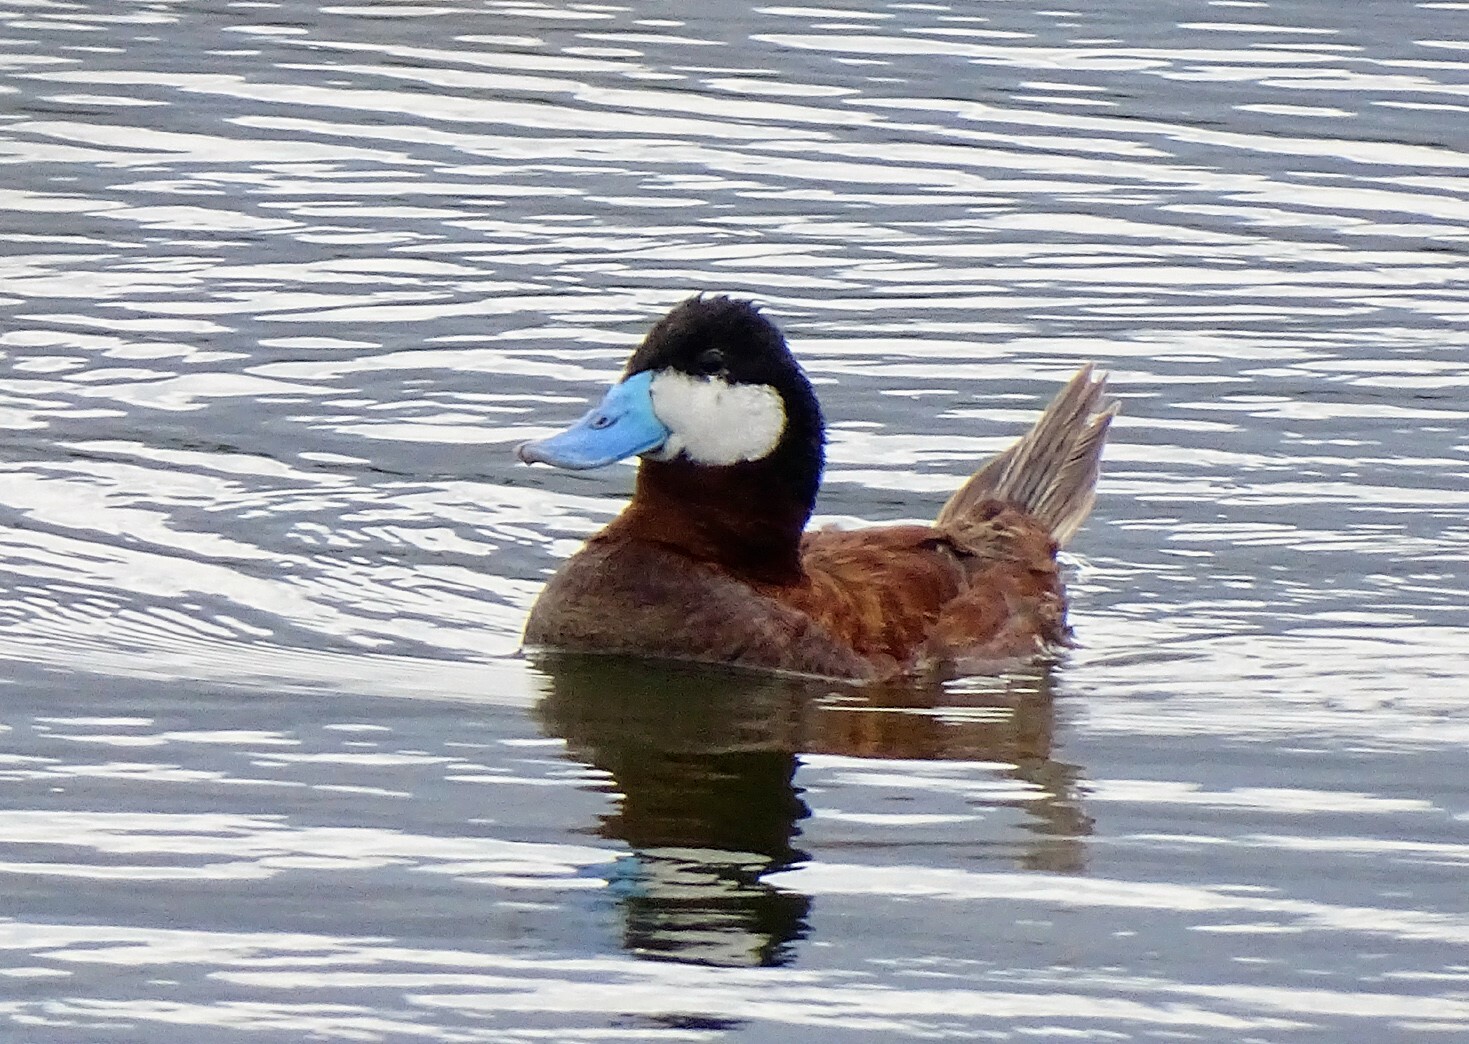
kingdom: Animalia
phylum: Chordata
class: Aves
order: Anseriformes
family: Anatidae
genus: Oxyura
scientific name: Oxyura jamaicensis
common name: Ruddy duck
